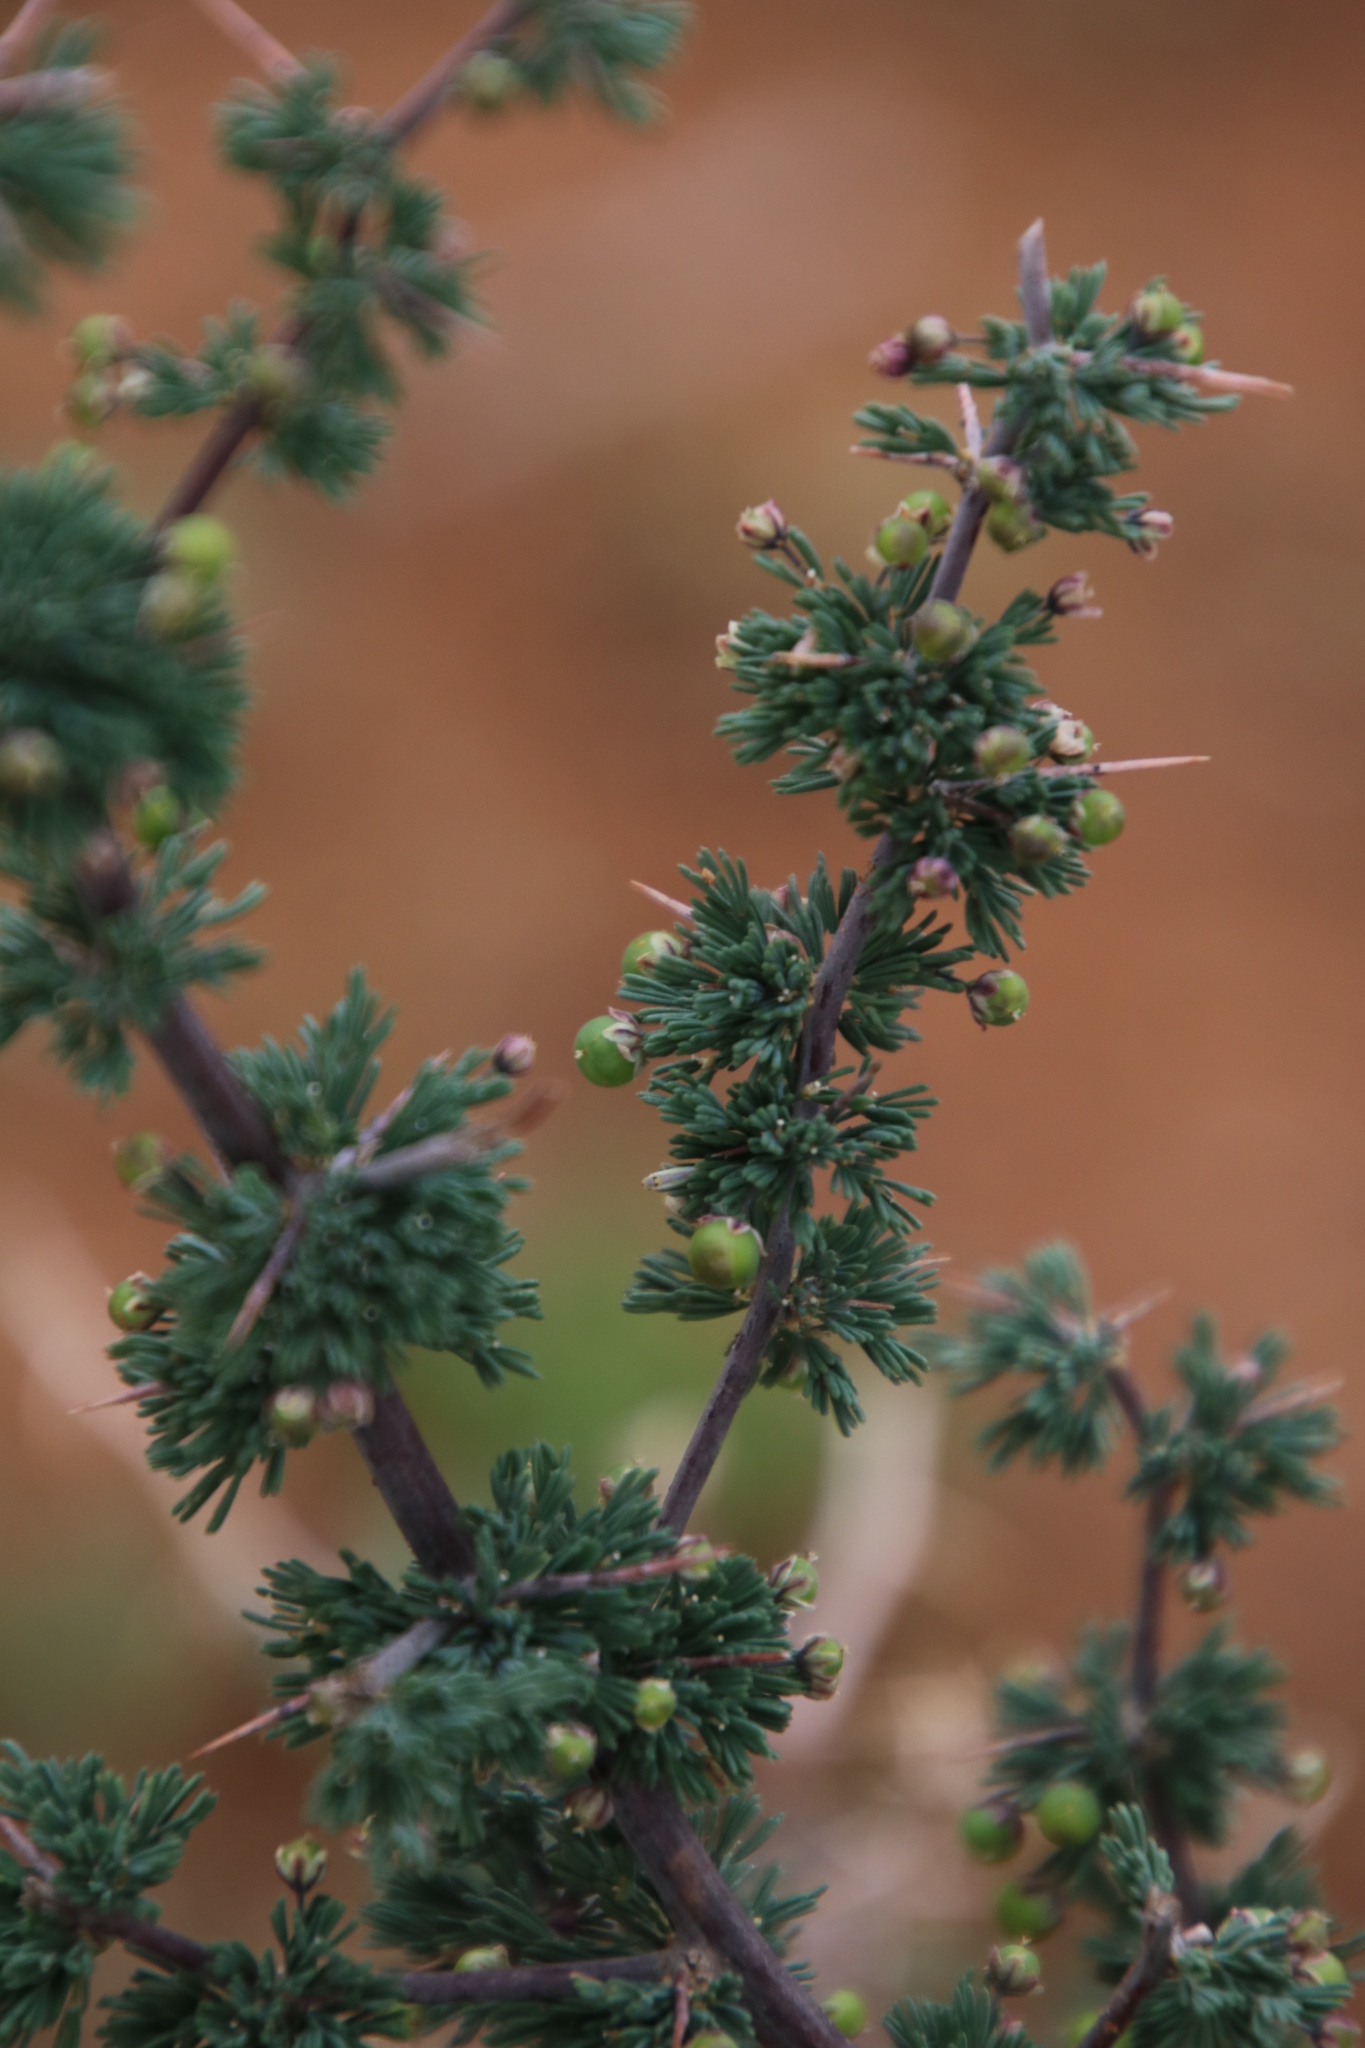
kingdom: Plantae
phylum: Tracheophyta
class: Liliopsida
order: Asparagales
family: Asparagaceae
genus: Asparagus
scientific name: Asparagus capensis
